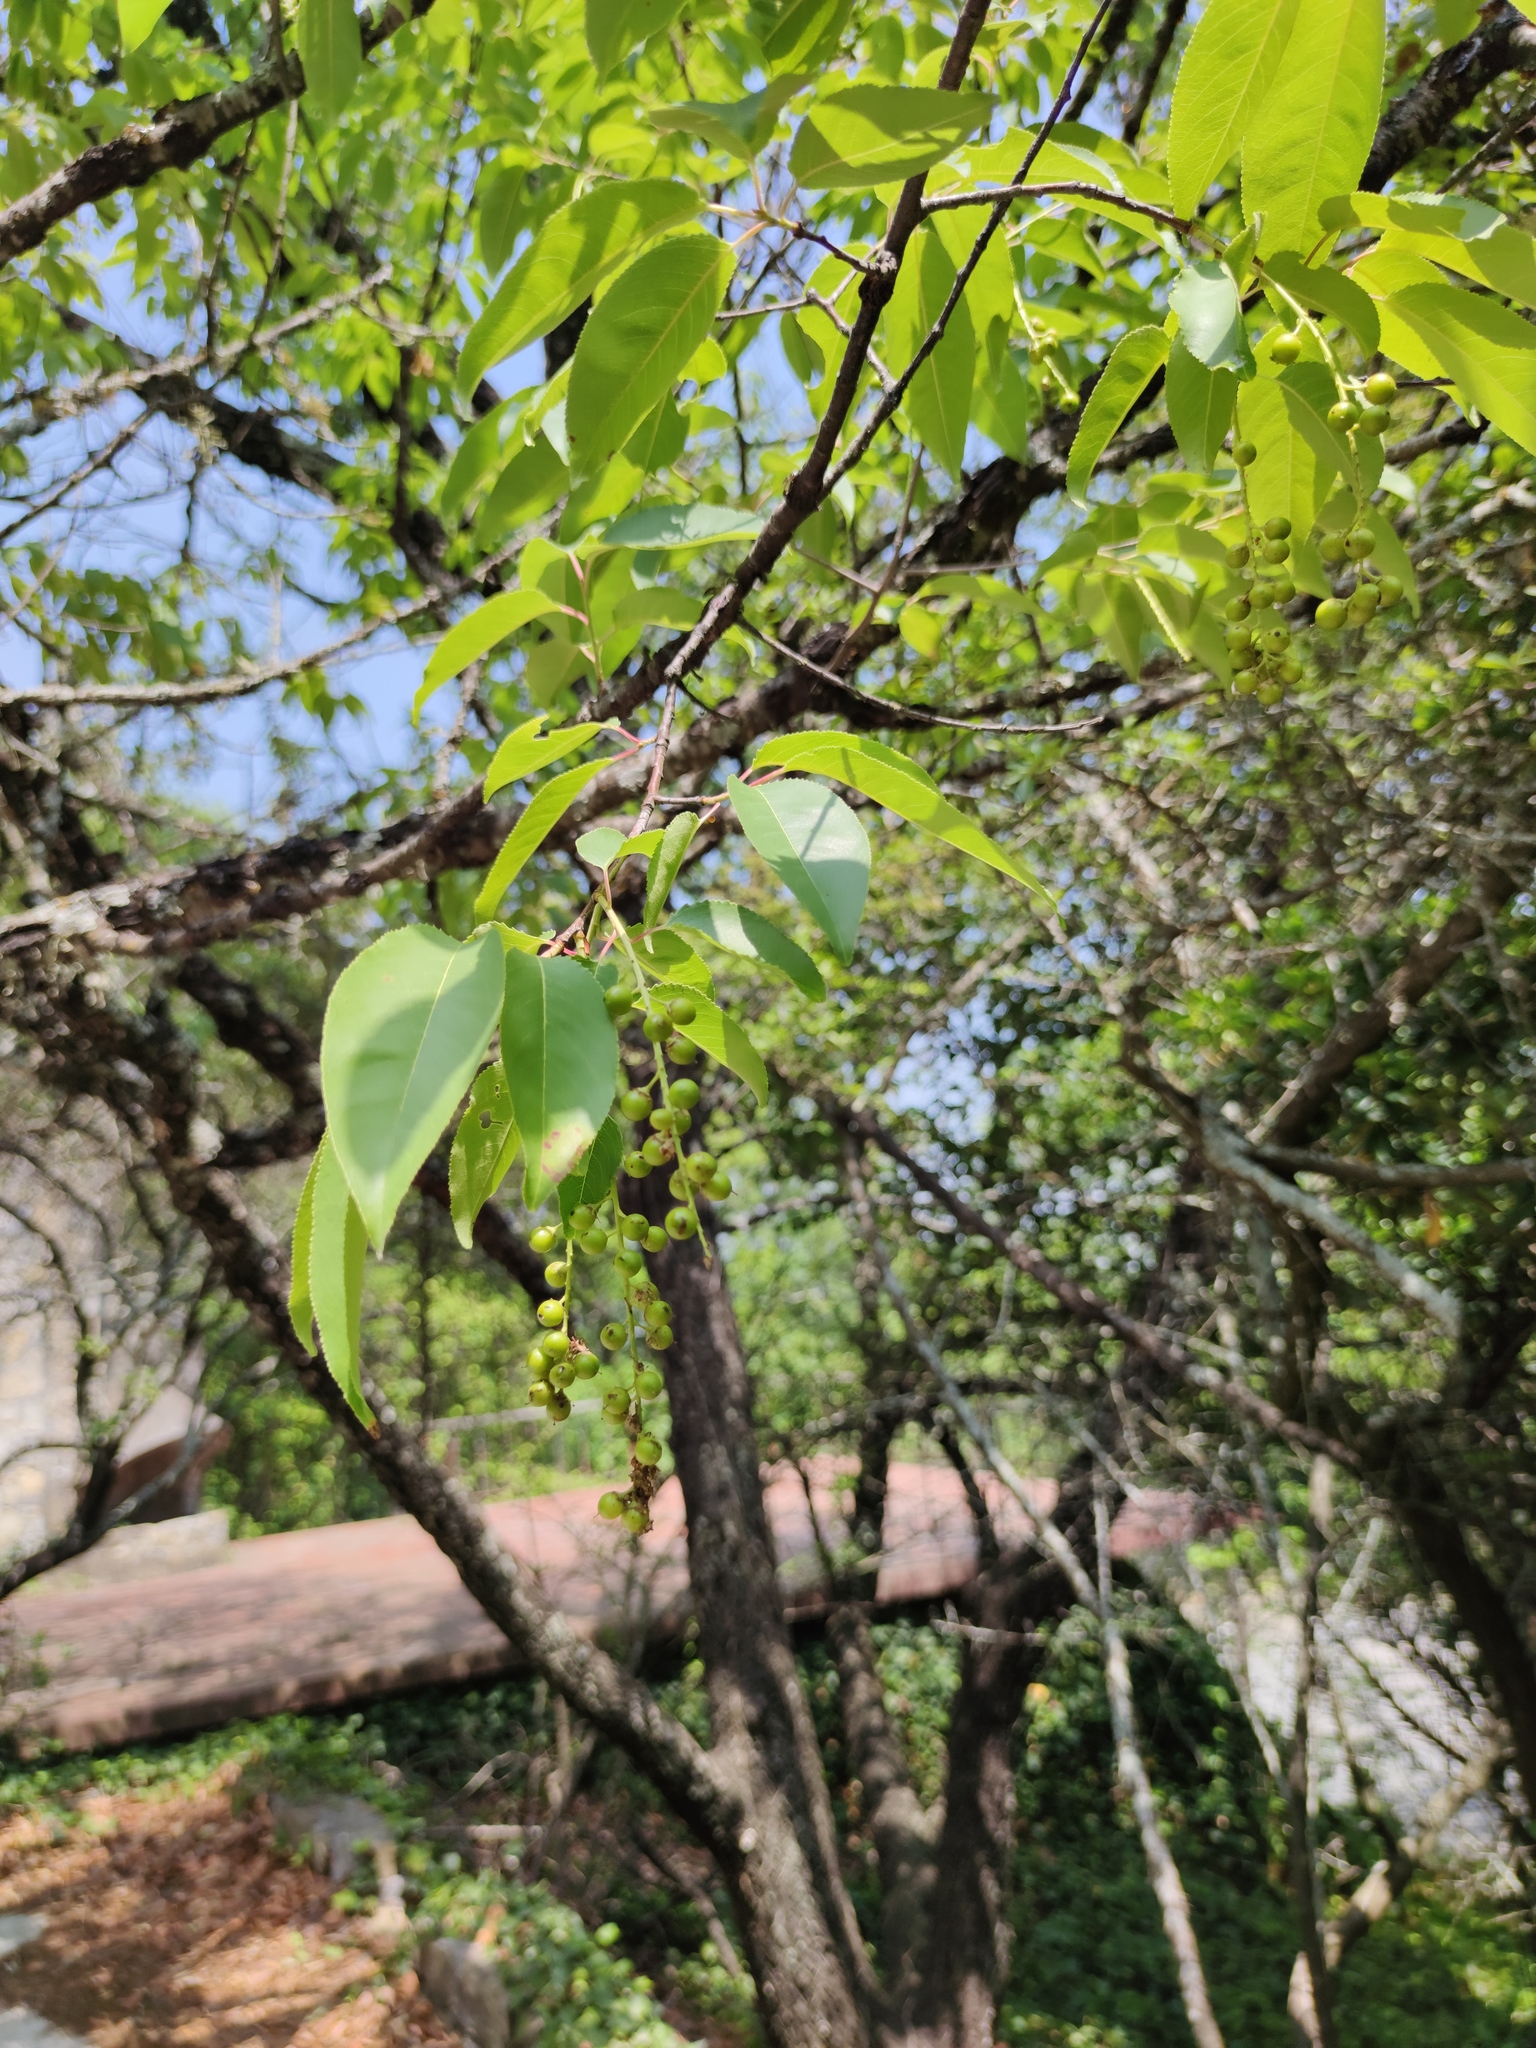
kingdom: Plantae
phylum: Tracheophyta
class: Magnoliopsida
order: Rosales
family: Rosaceae
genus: Prunus
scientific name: Prunus serotina
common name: Black cherry
